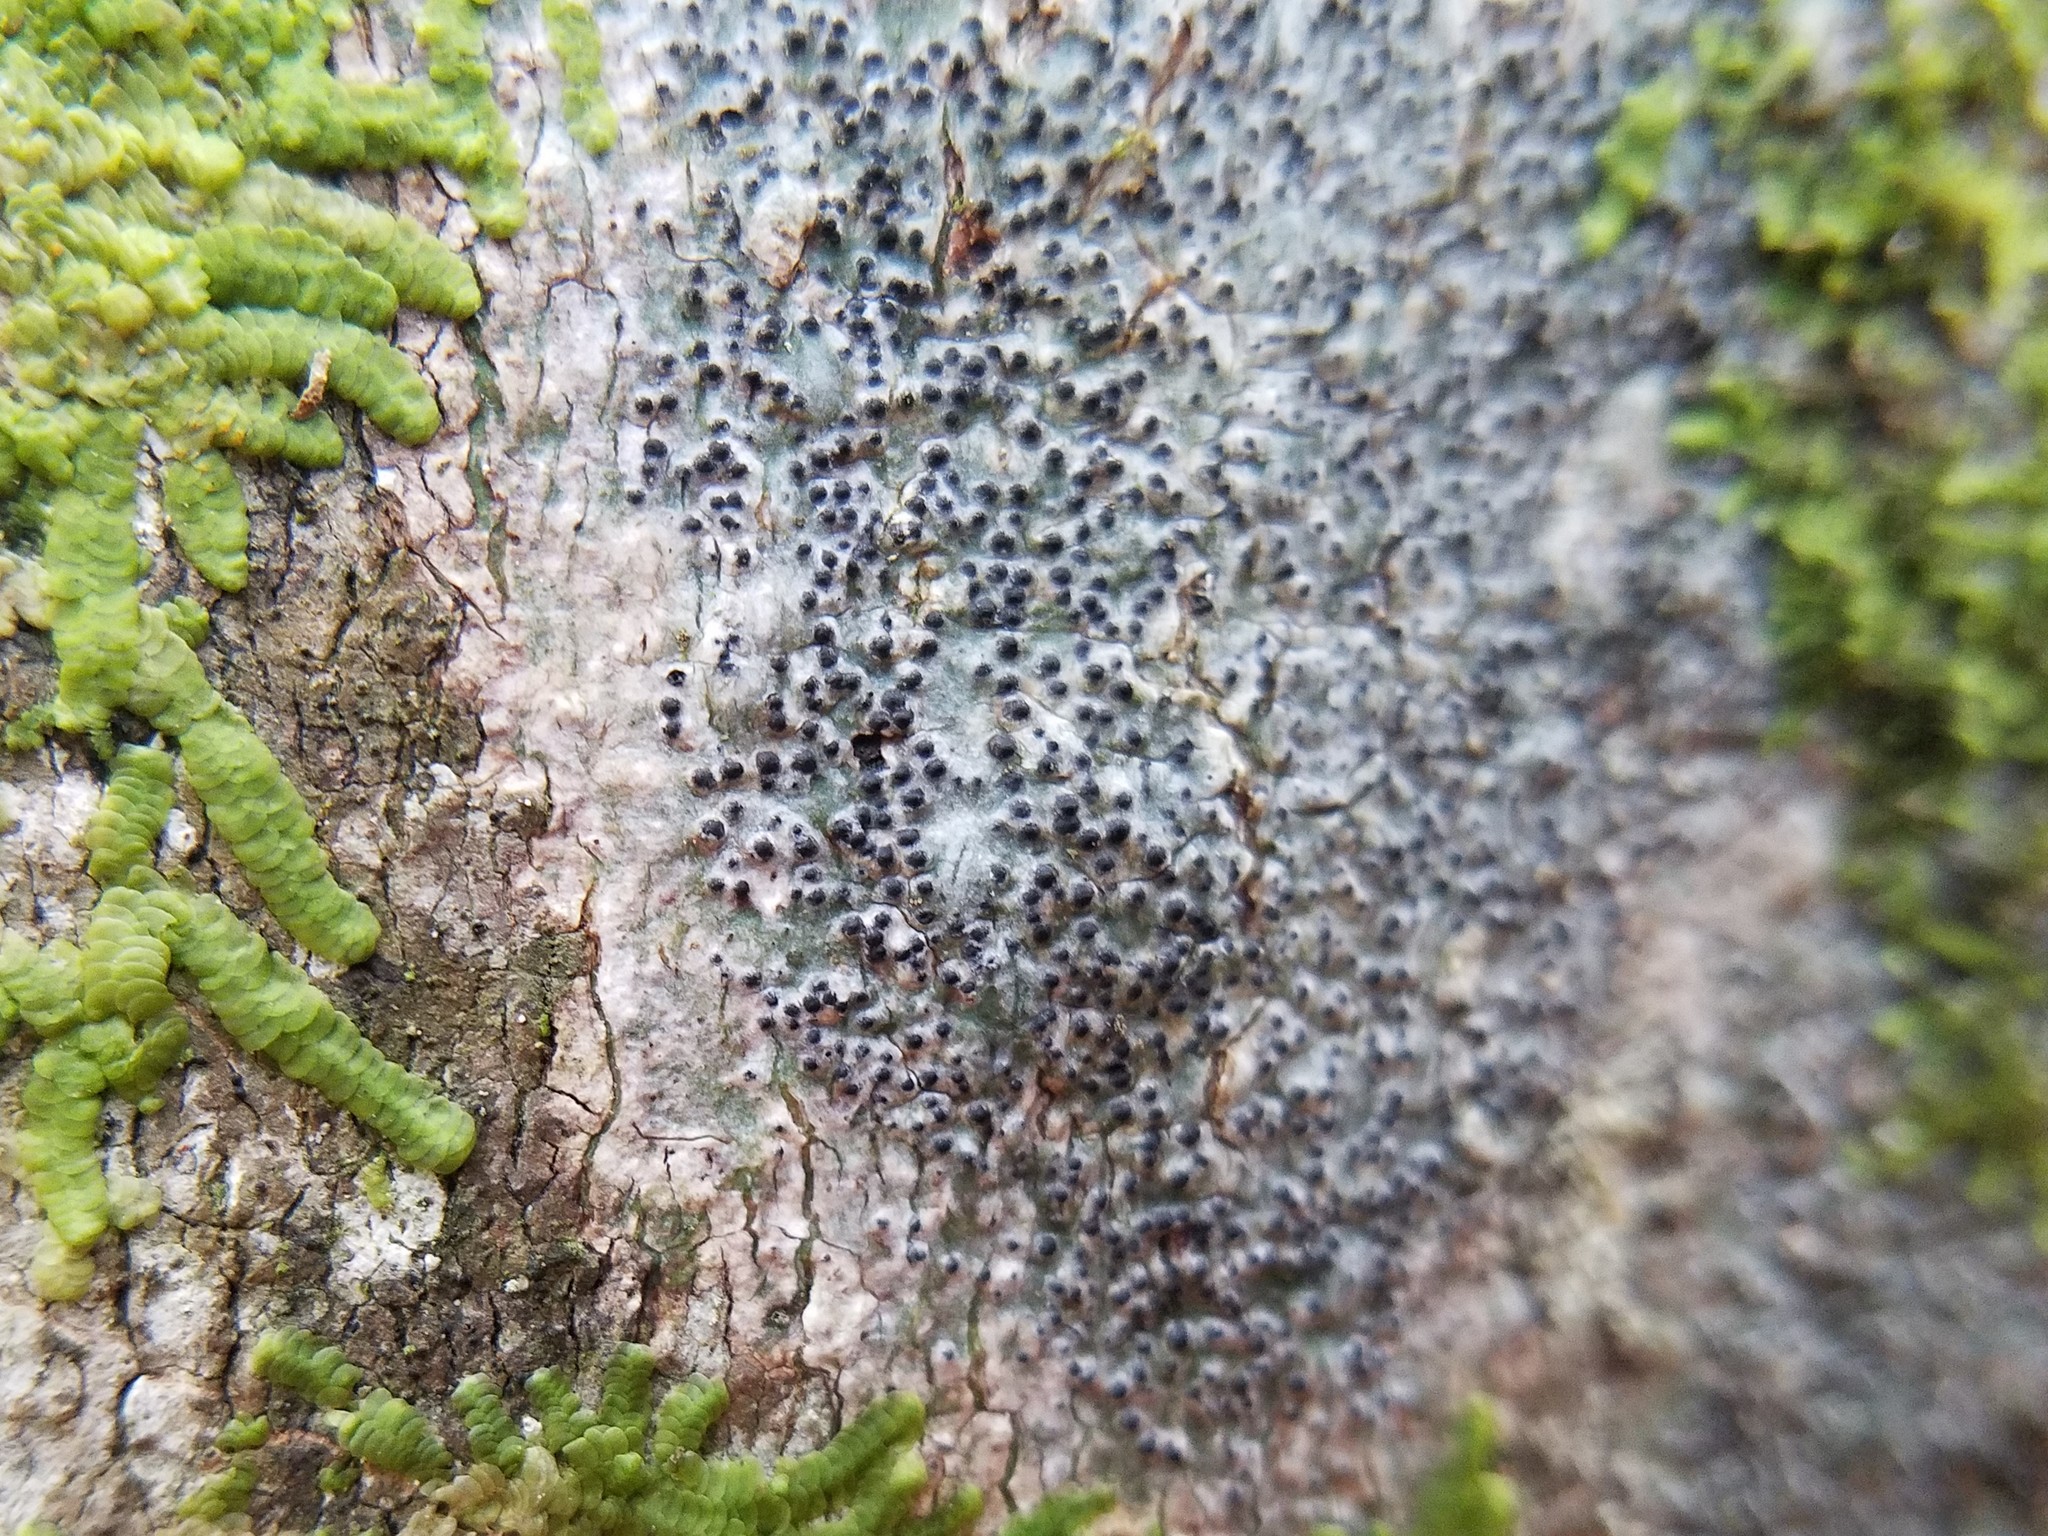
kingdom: Fungi
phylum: Ascomycota
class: Eurotiomycetes
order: Pyrenulales
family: Pyrenulaceae
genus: Pyrenula
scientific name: Pyrenula punctella
